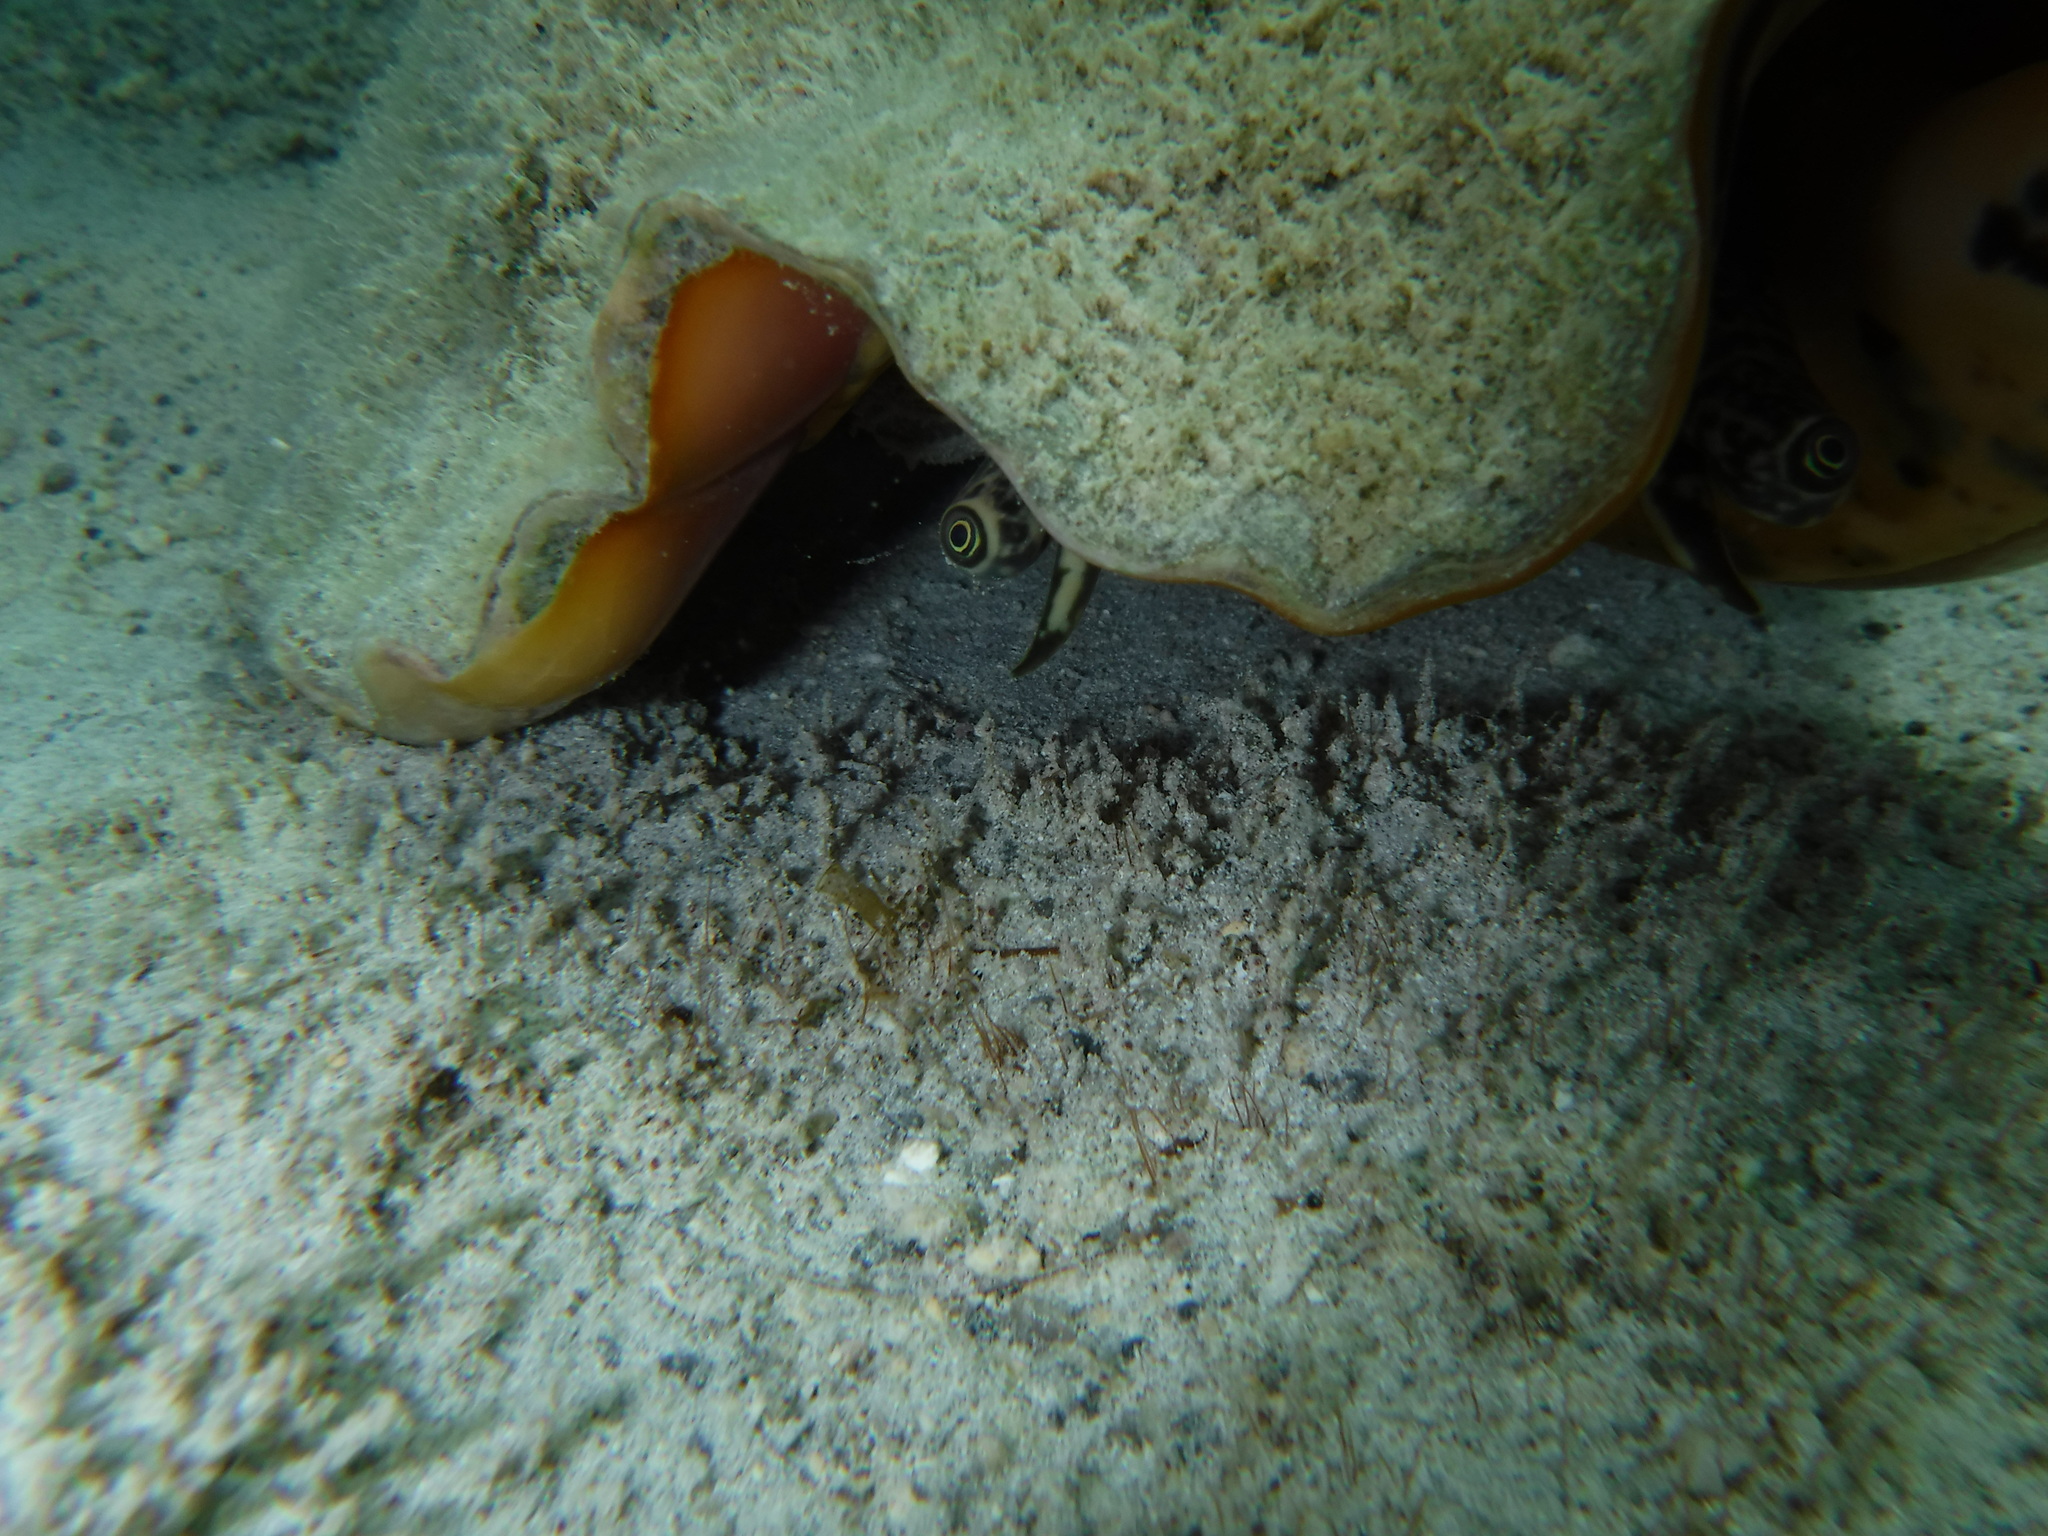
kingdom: Animalia
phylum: Mollusca
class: Gastropoda
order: Littorinimorpha
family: Strombidae
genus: Aliger
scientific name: Aliger gigas
